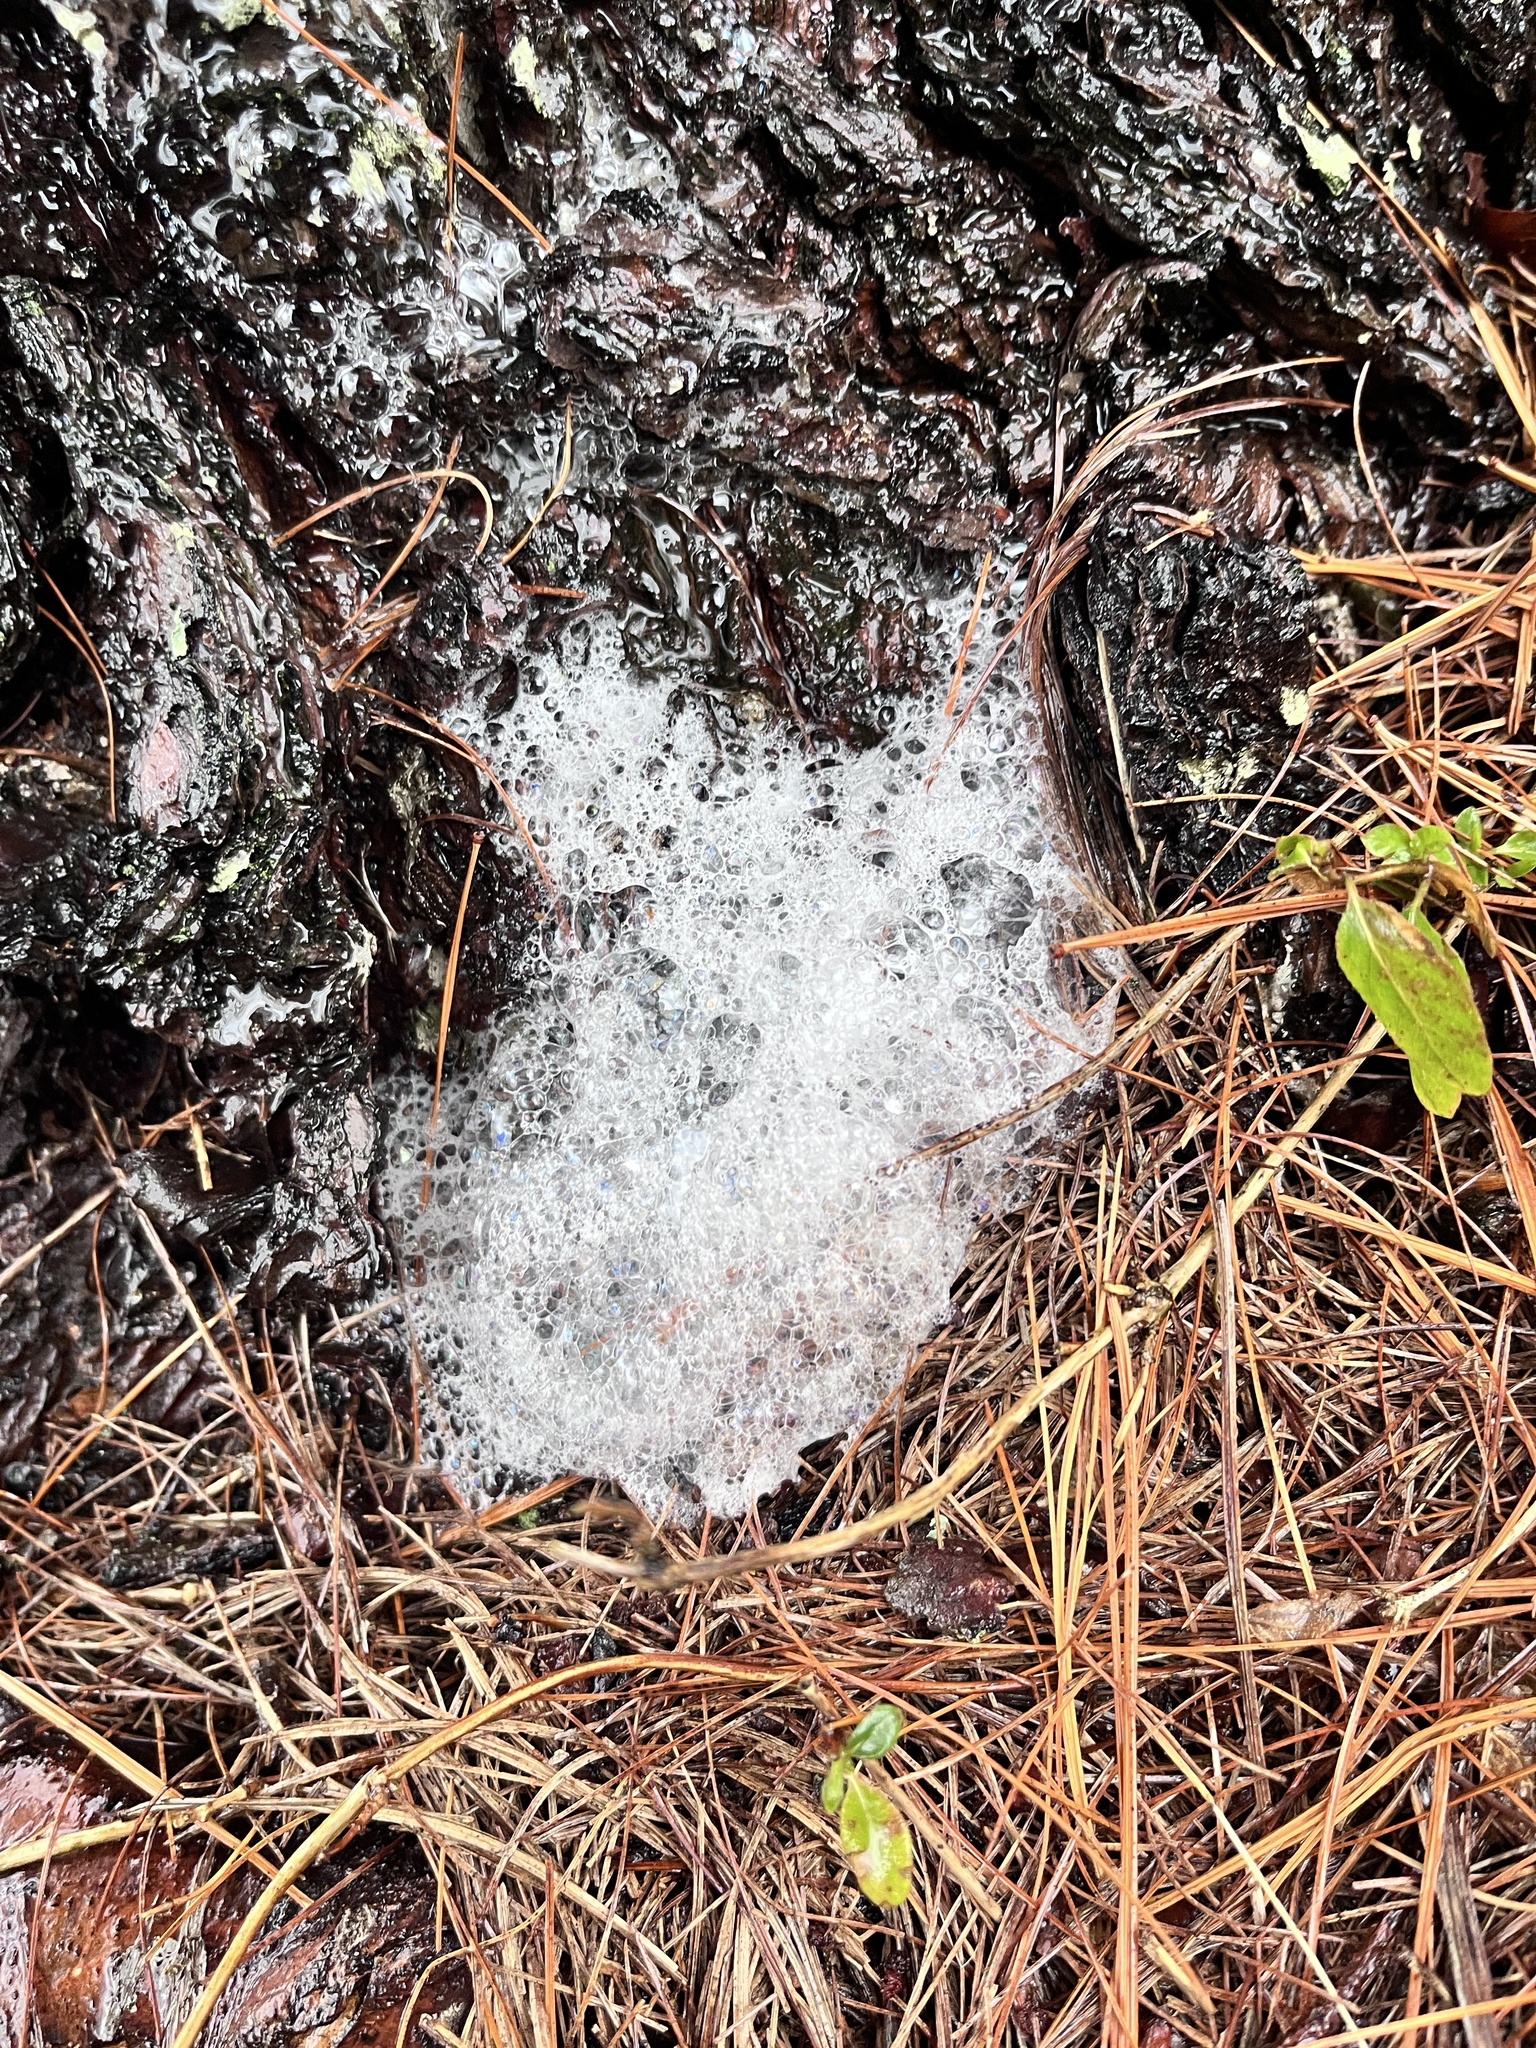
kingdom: Plantae
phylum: Tracheophyta
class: Pinopsida
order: Pinales
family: Pinaceae
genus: Pinus
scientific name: Pinus strobus
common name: Weymouth pine
